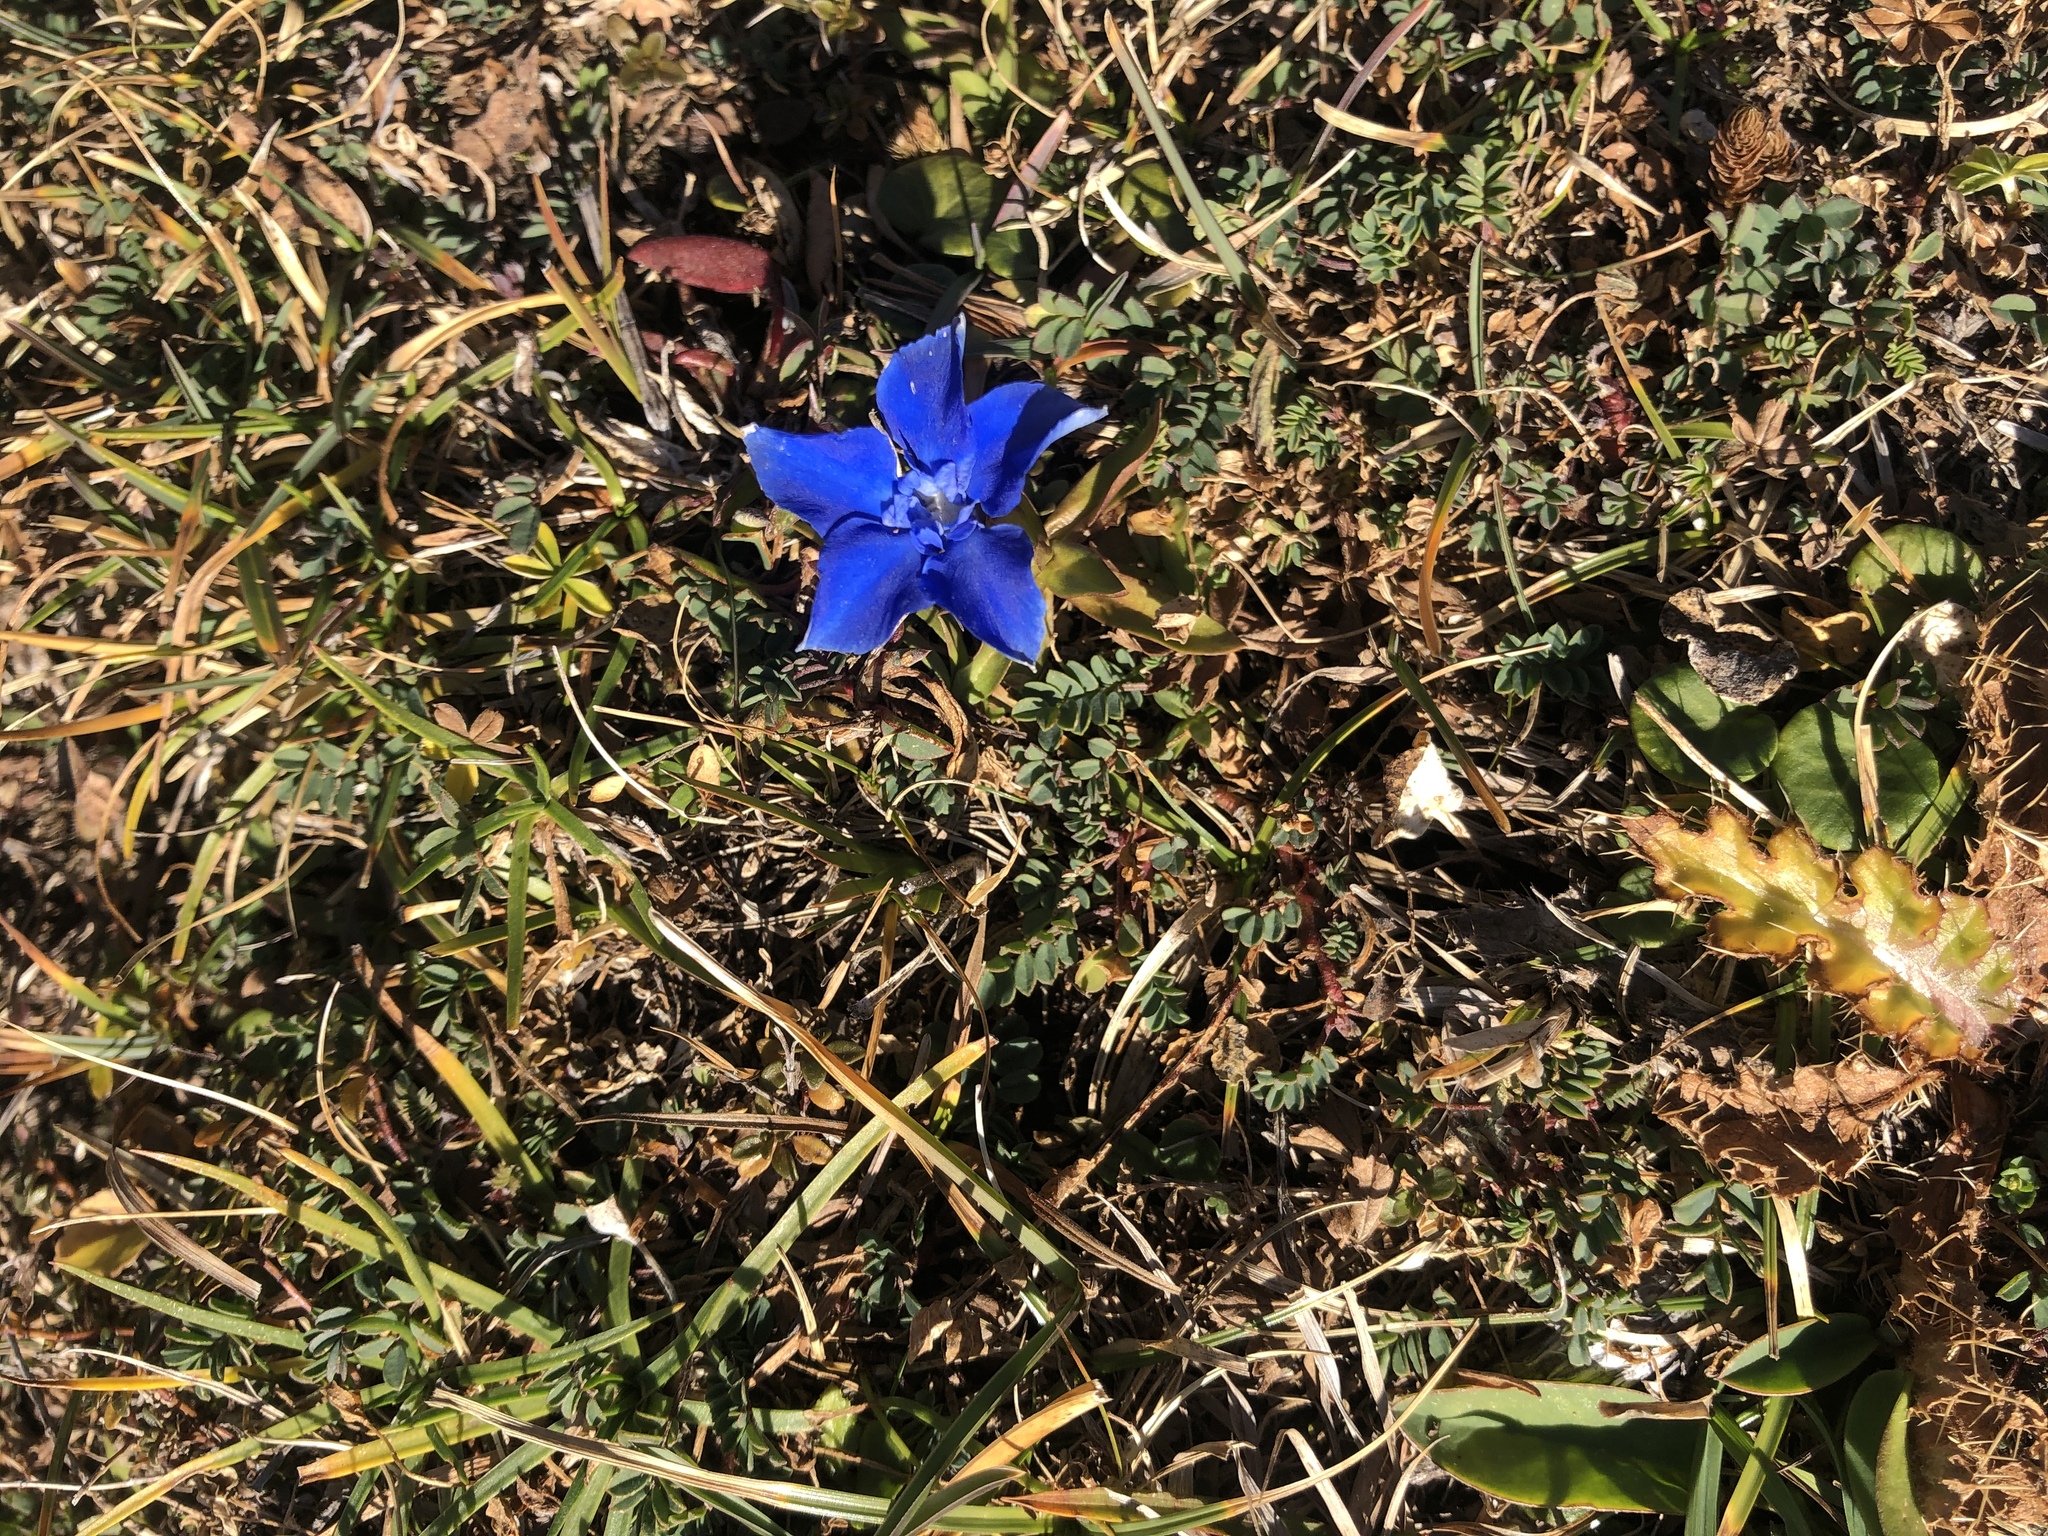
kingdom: Plantae
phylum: Tracheophyta
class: Magnoliopsida
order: Gentianales
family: Gentianaceae
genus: Gentiana
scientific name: Gentiana verna
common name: Spring gentian
